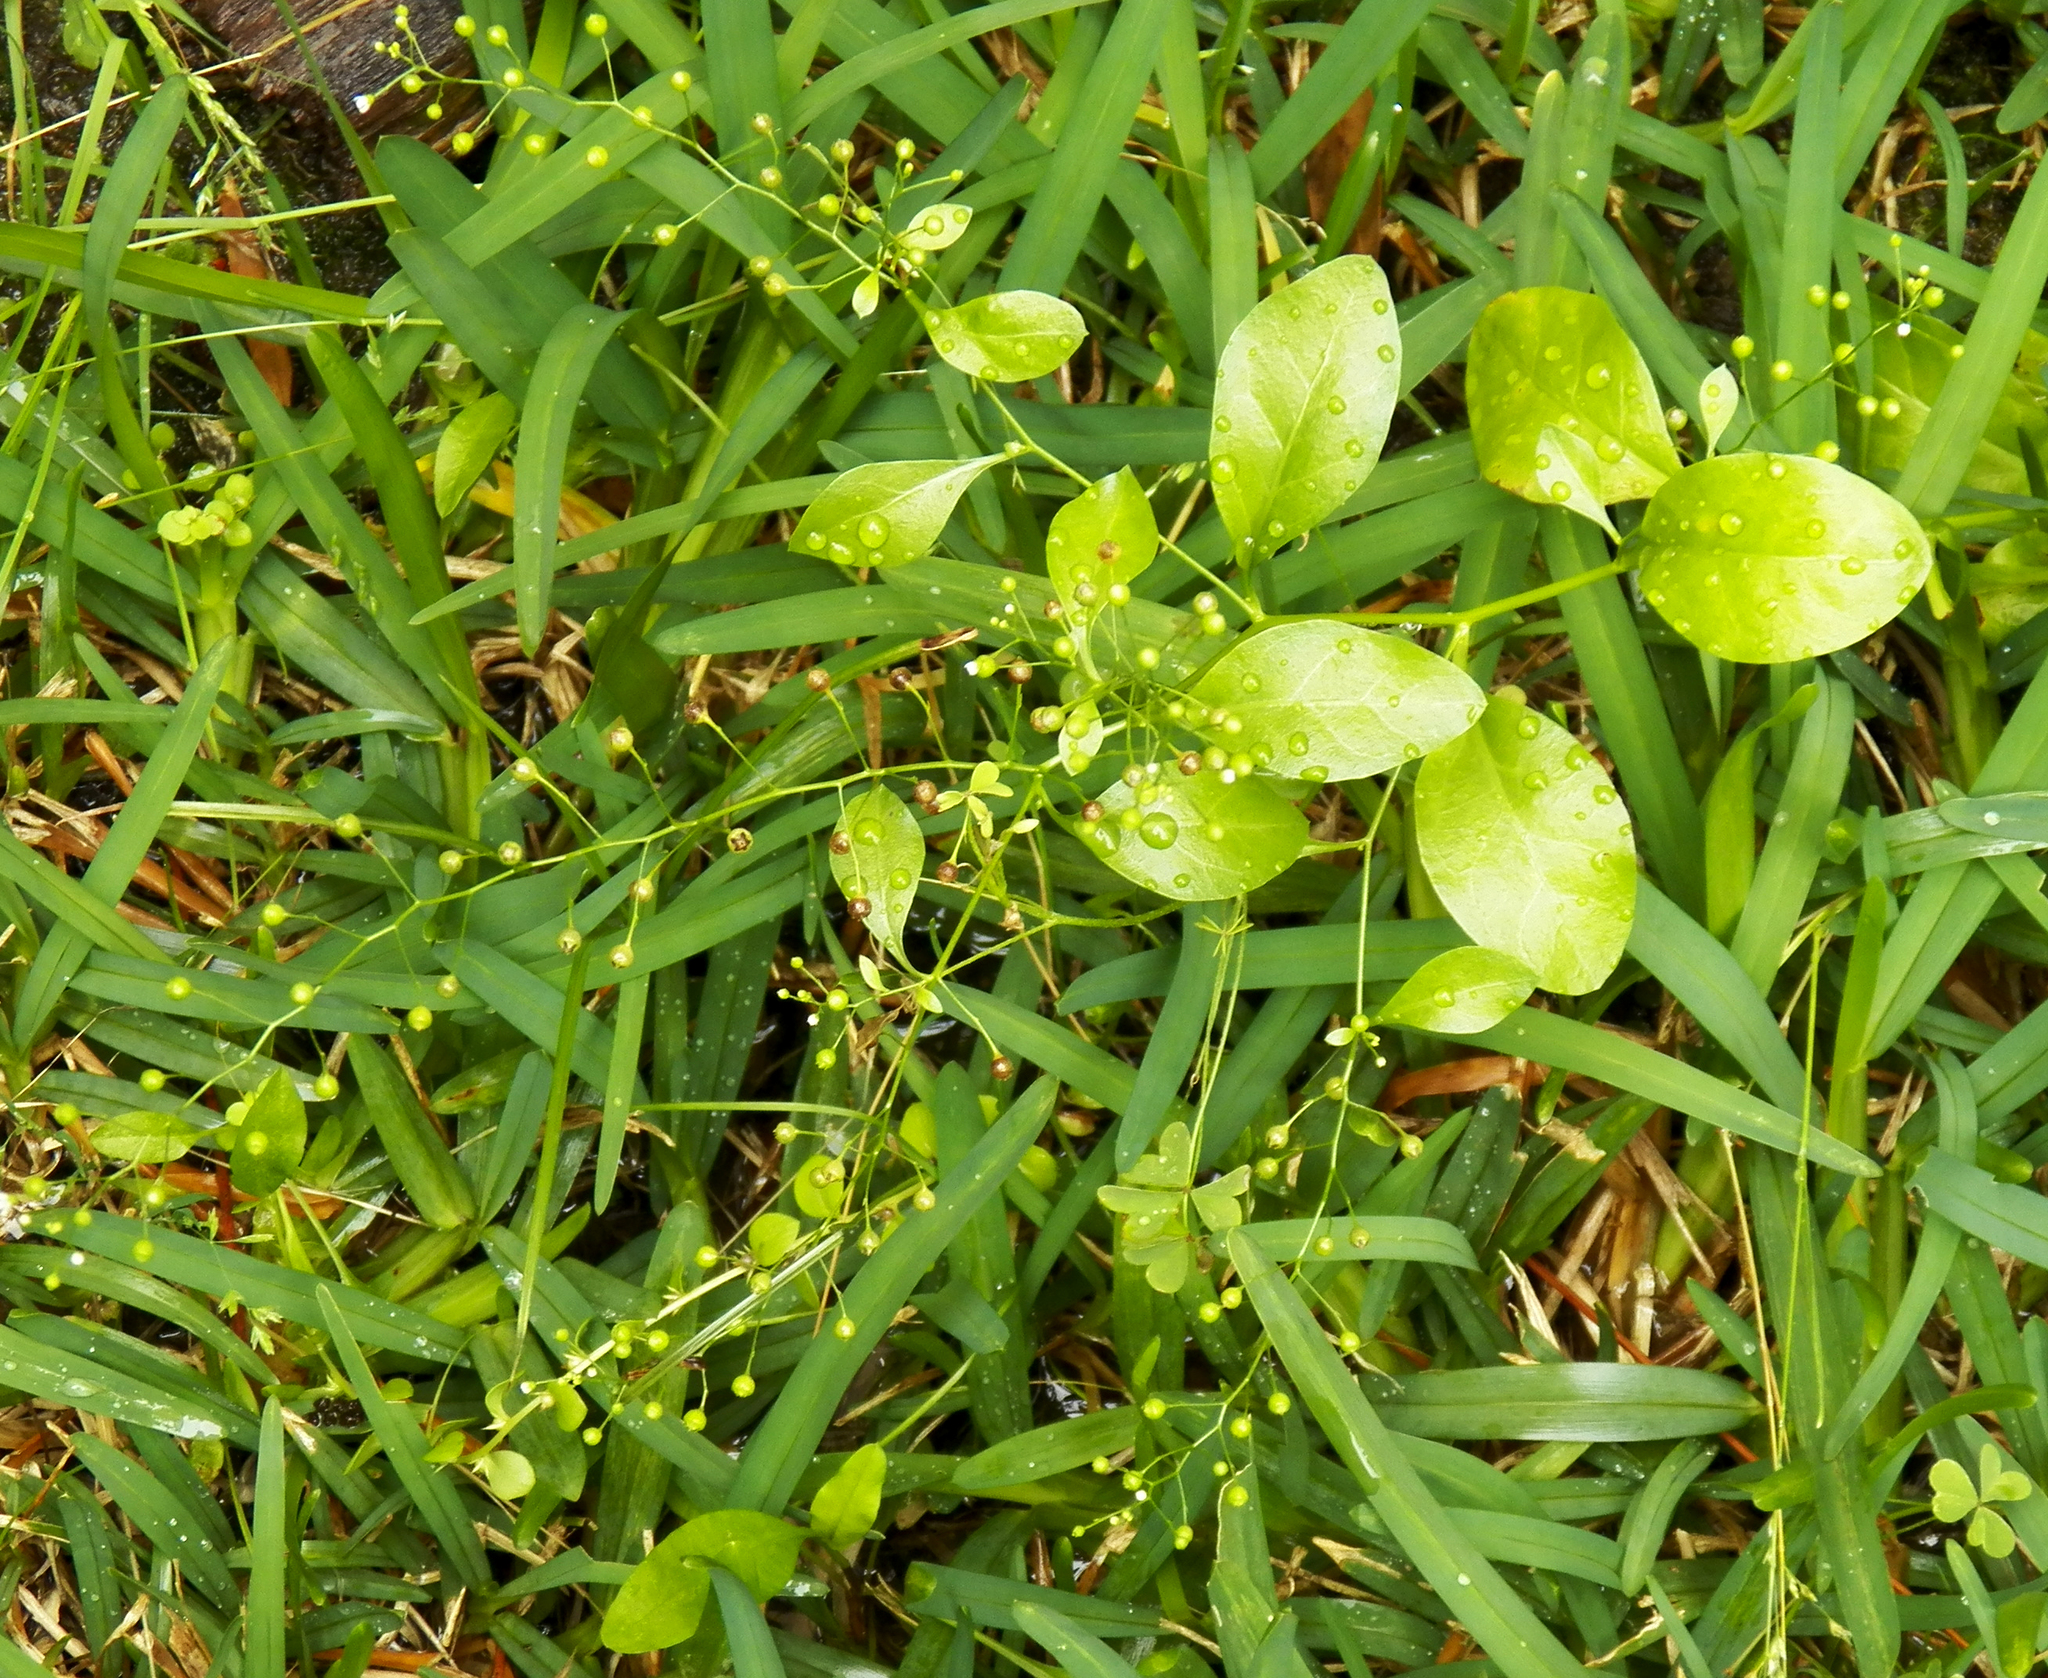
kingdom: Plantae
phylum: Tracheophyta
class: Magnoliopsida
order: Caryophyllales
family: Talinaceae
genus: Talinum
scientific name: Talinum paniculatum
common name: Jewels of opar
